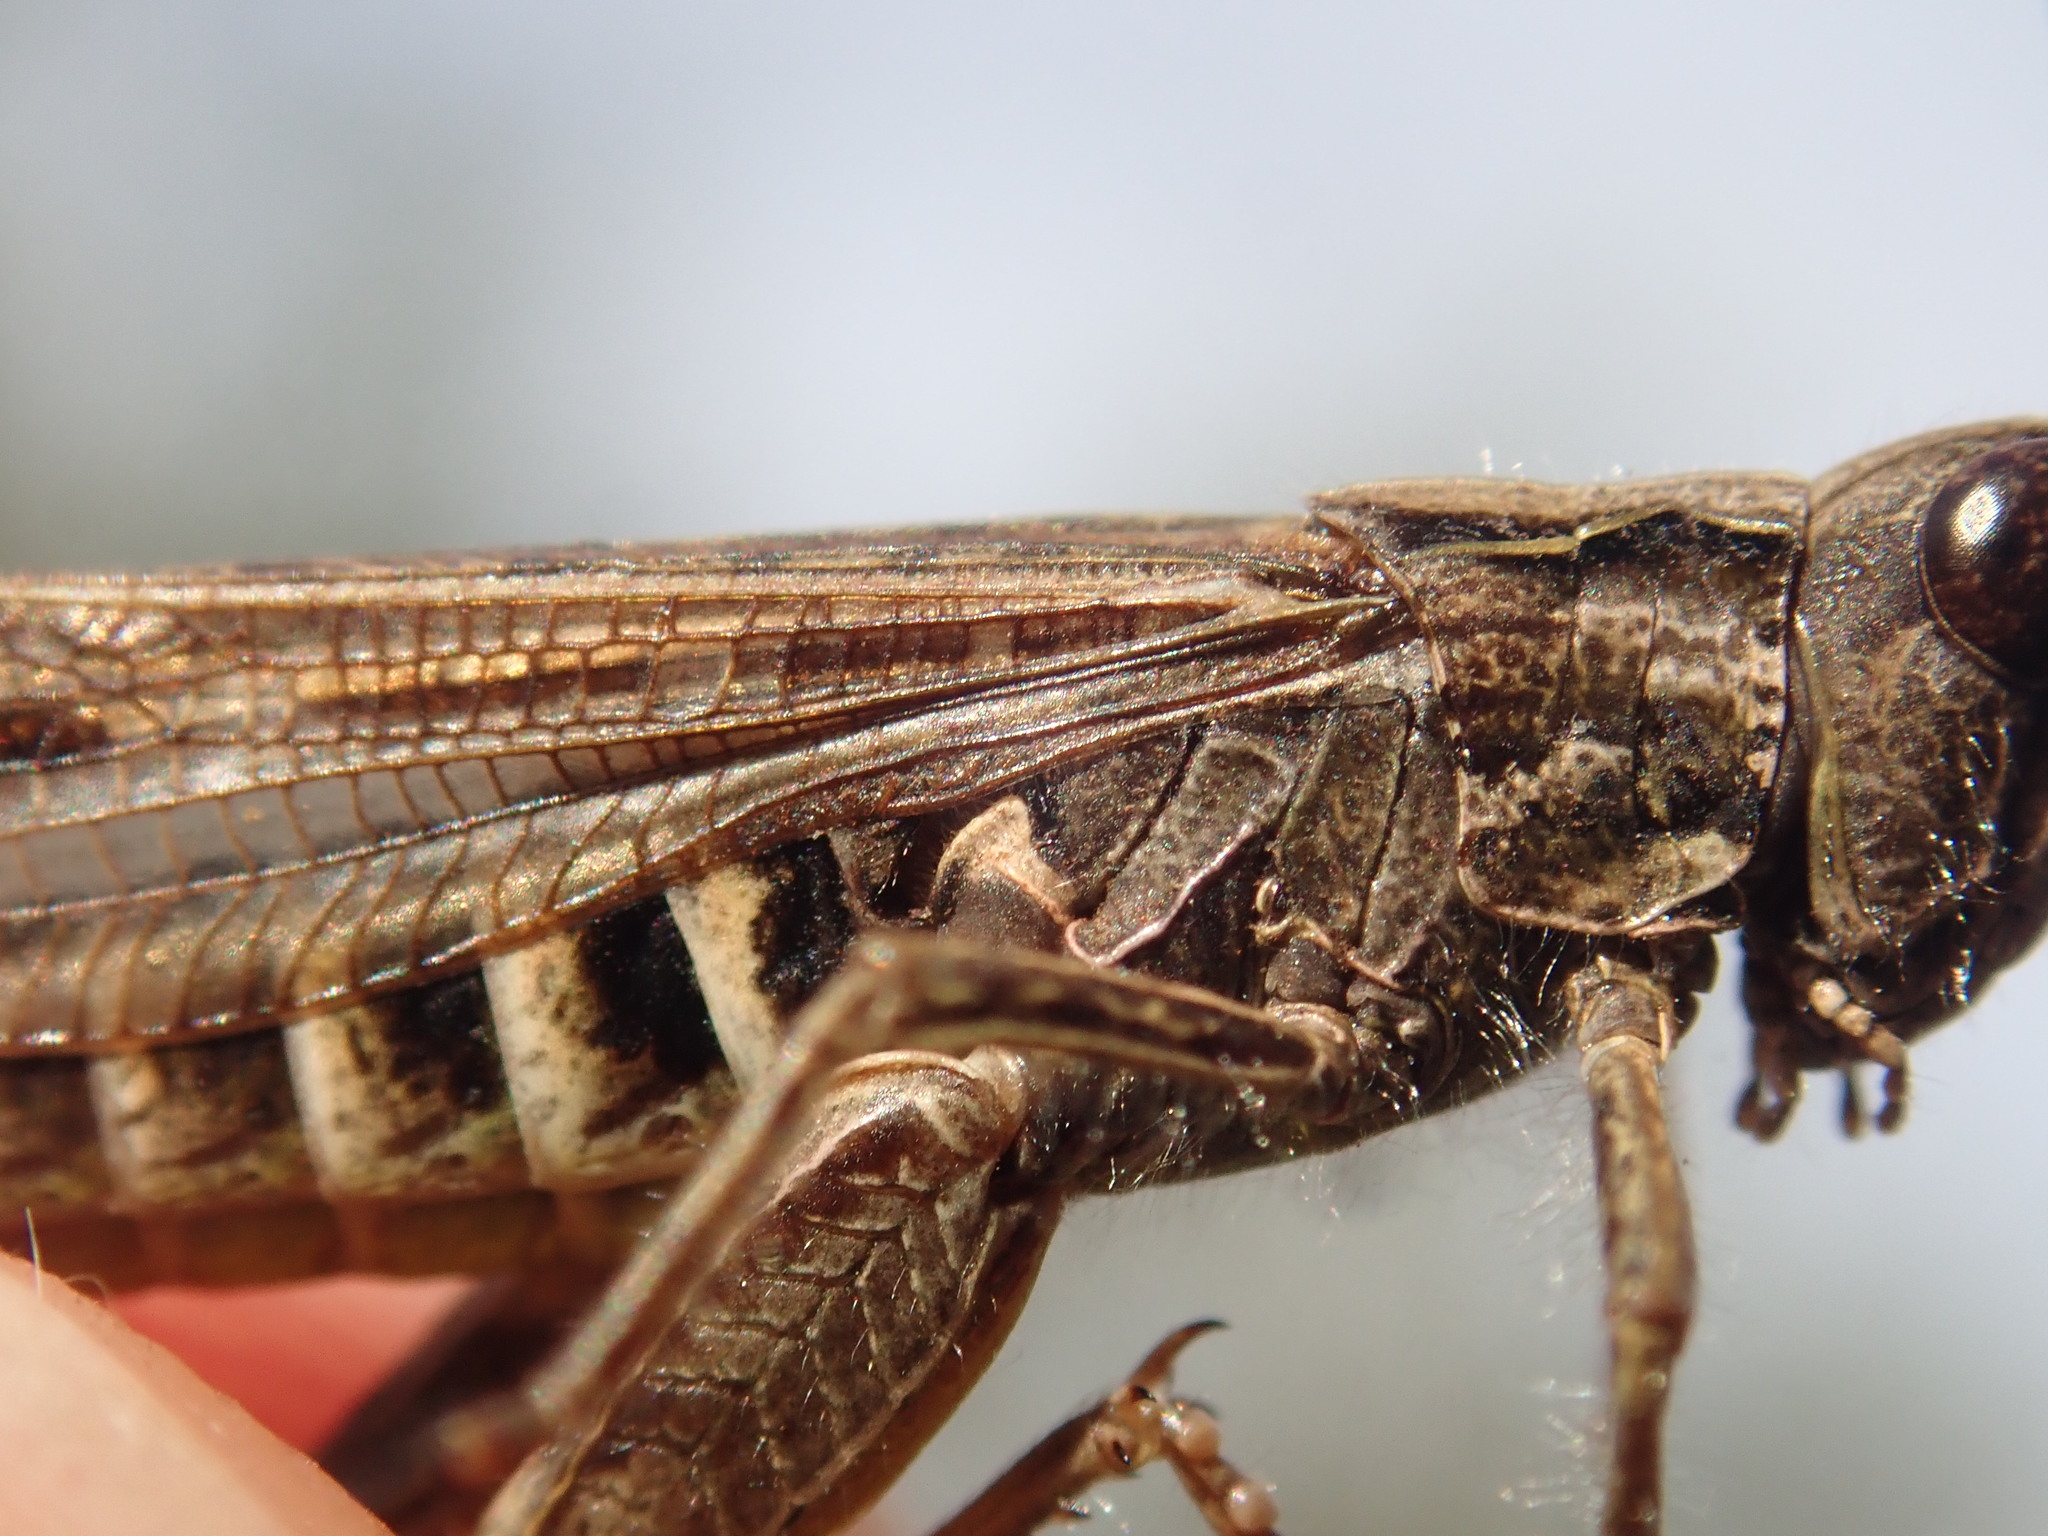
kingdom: Animalia
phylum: Arthropoda
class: Insecta
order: Orthoptera
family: Acrididae
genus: Chorthippus
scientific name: Chorthippus biguttulus
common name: Bow-winged grasshopper
